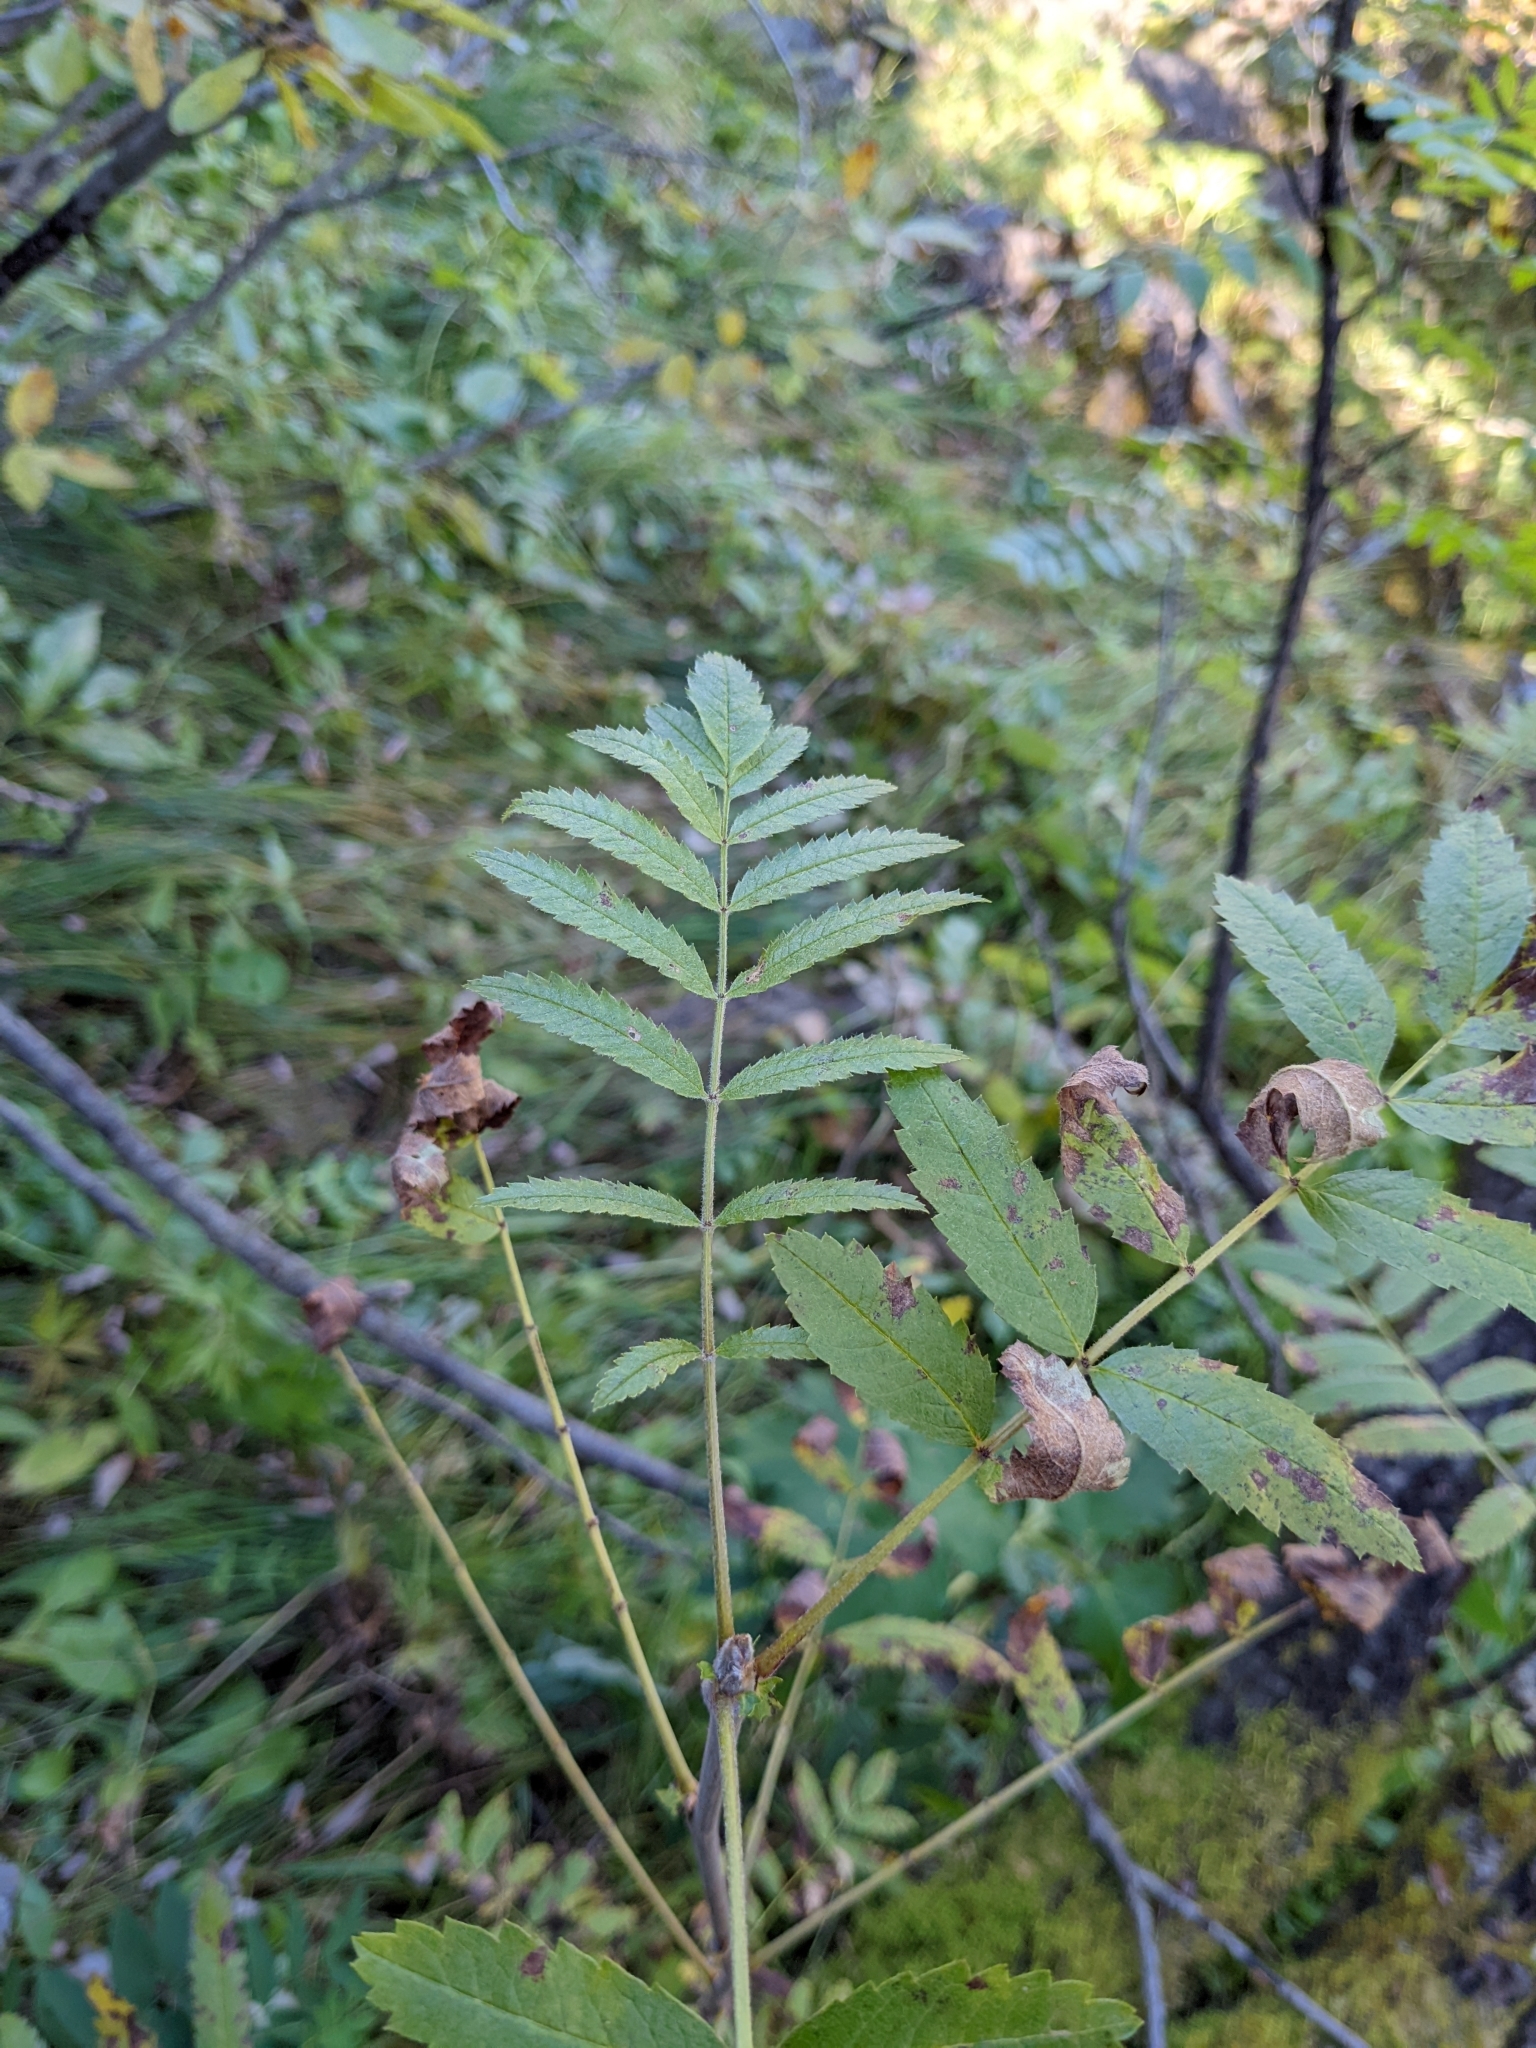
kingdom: Plantae
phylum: Tracheophyta
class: Magnoliopsida
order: Rosales
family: Rosaceae
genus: Sorbus
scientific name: Sorbus aucuparia
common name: Rowan
